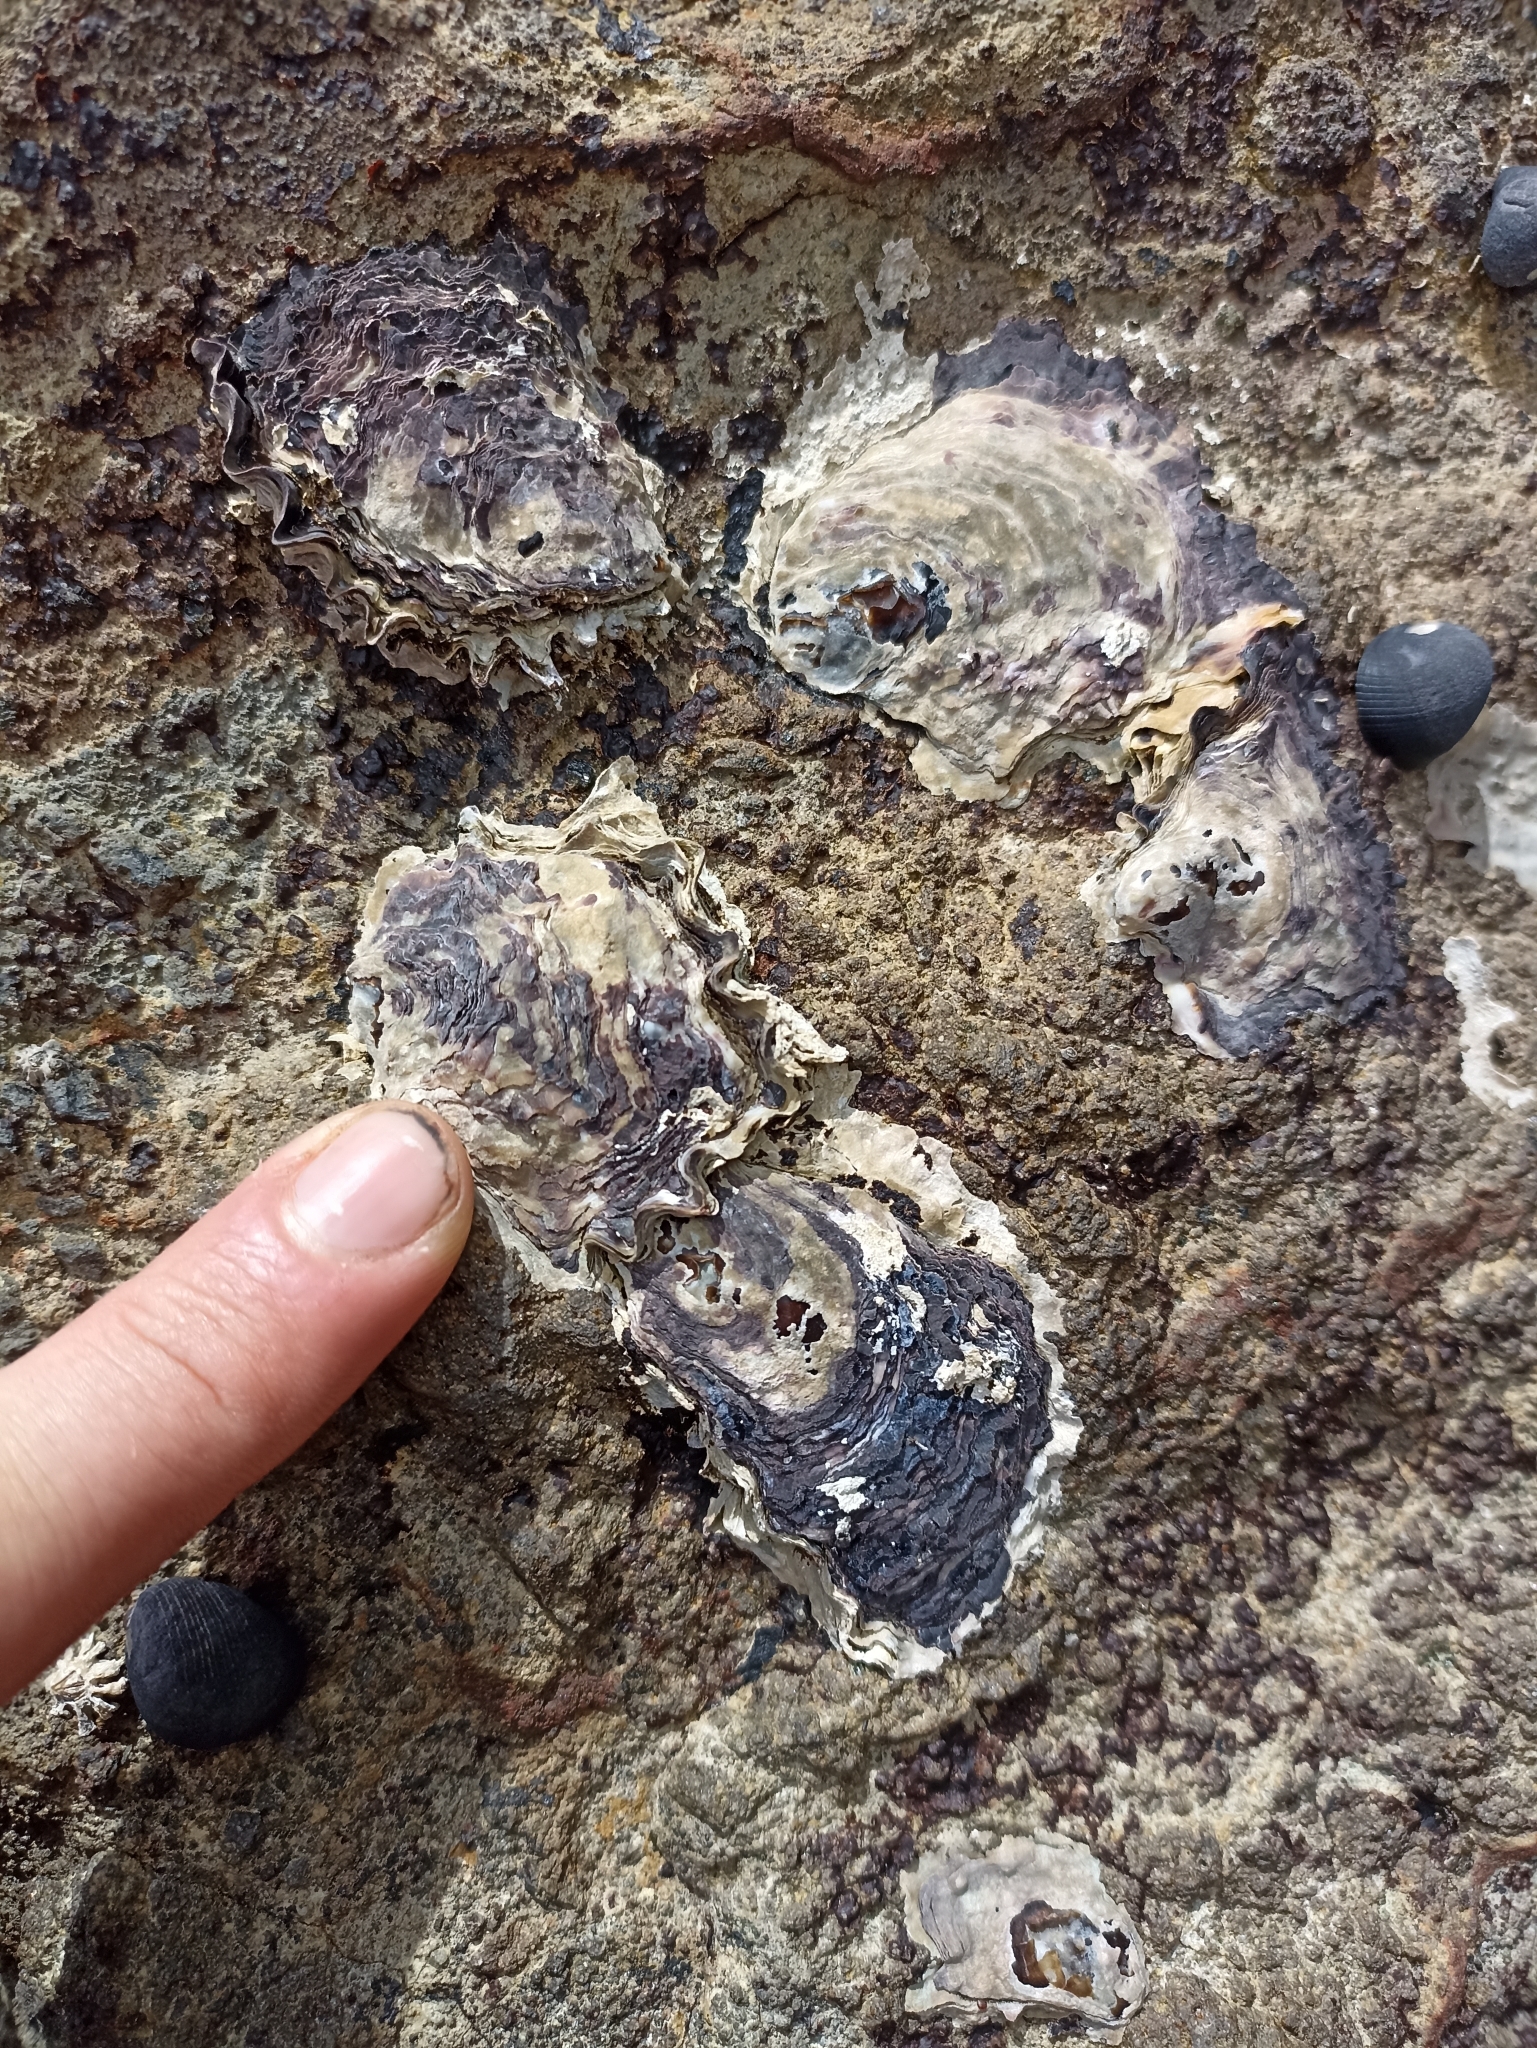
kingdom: Animalia
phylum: Mollusca
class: Bivalvia
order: Ostreida
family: Ostreidae
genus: Magallana
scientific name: Magallana gigas
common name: Pacific oyster
